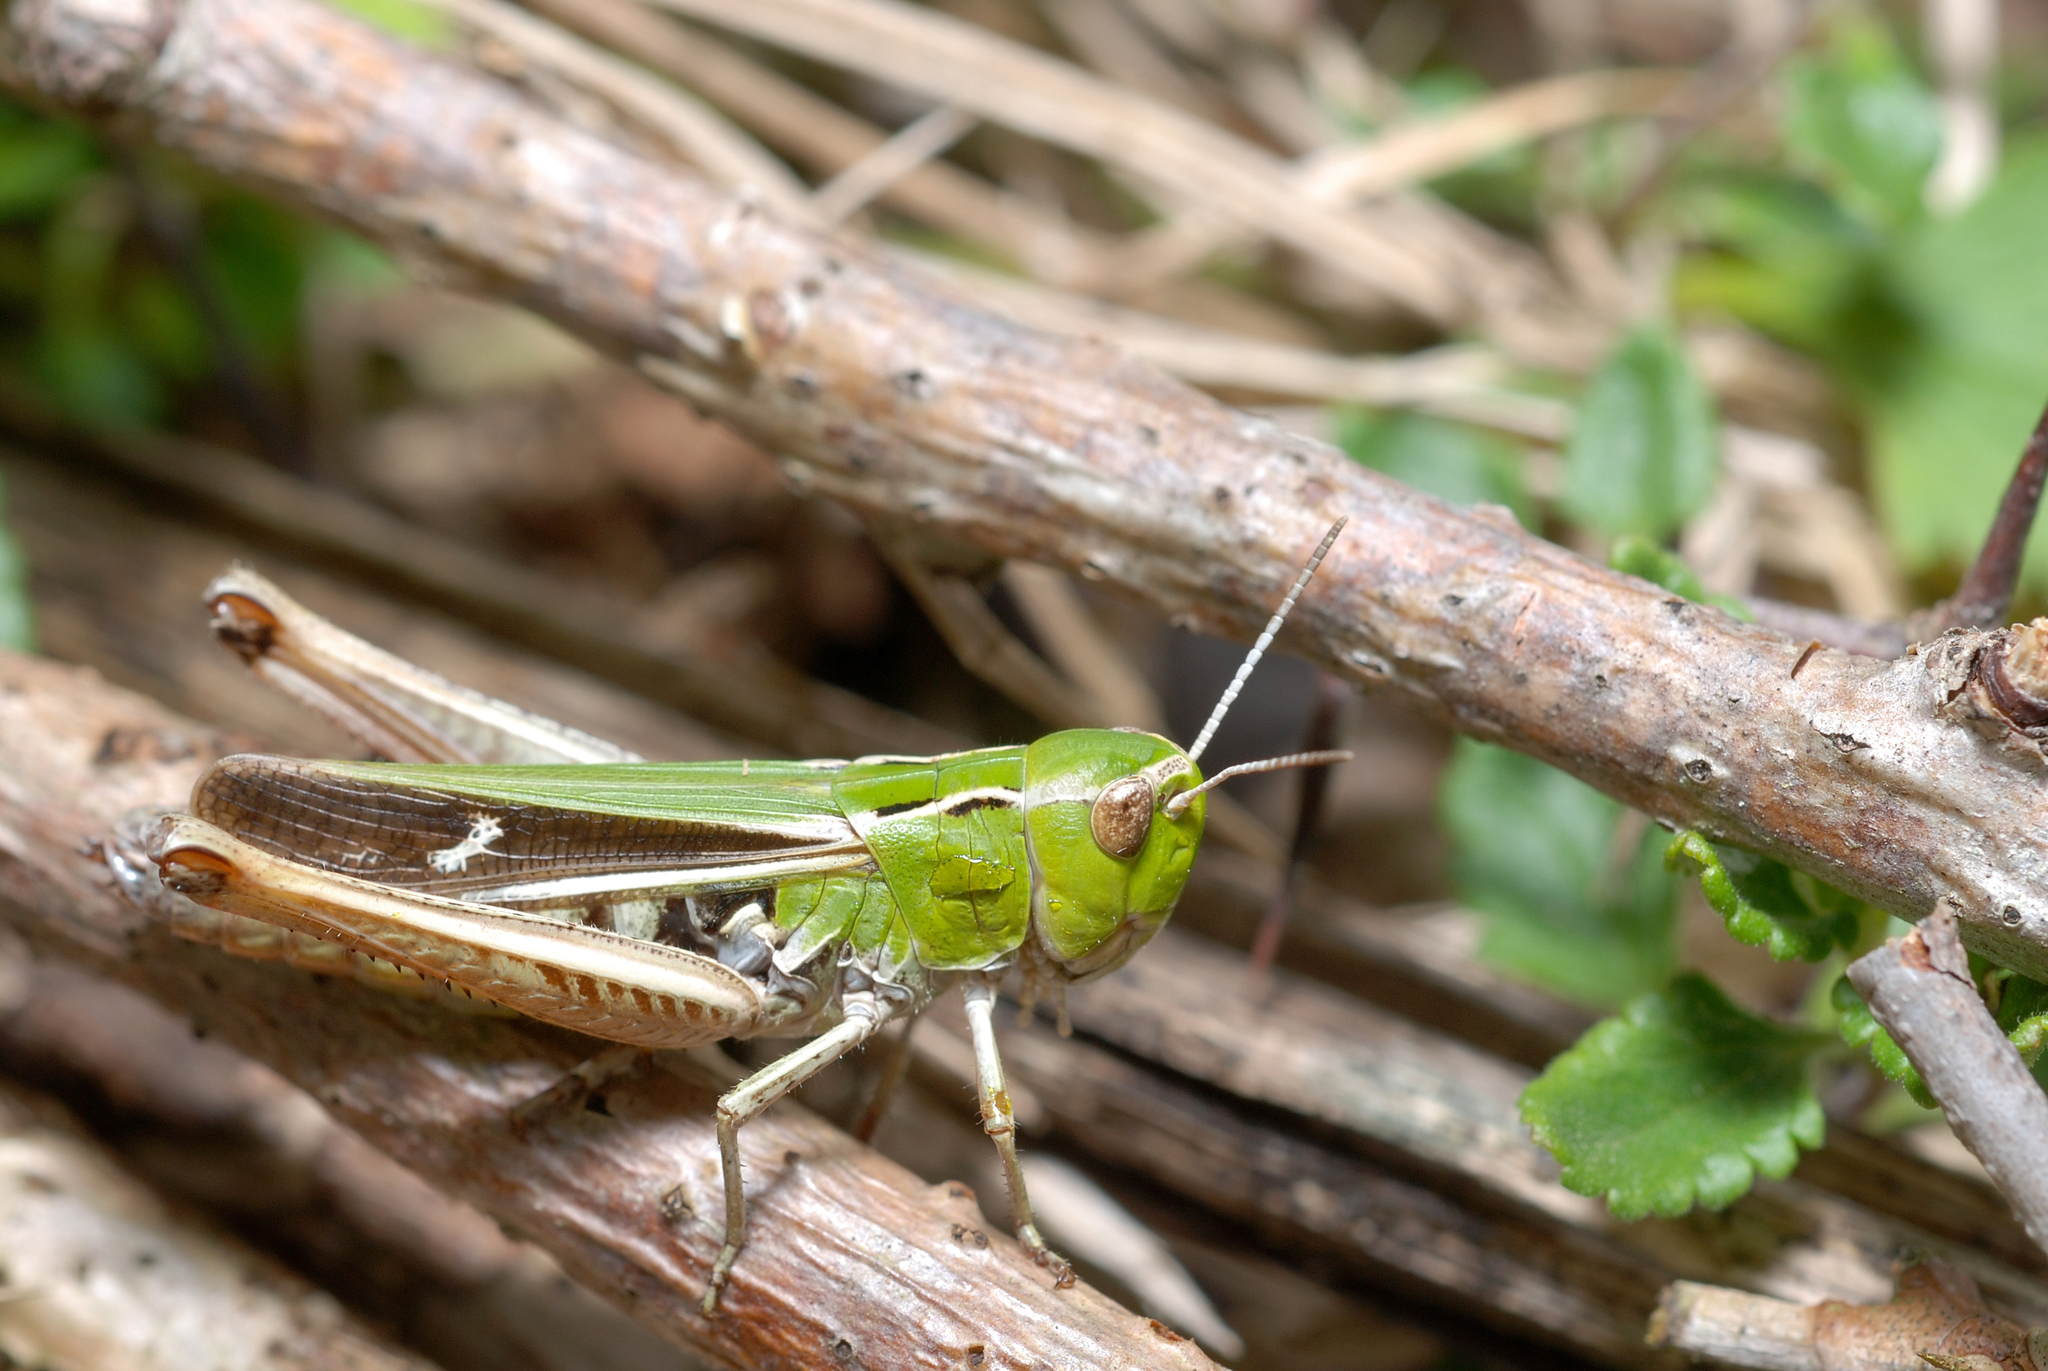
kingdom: Animalia
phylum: Arthropoda
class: Insecta
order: Orthoptera
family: Acrididae
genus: Stenobothrus
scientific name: Stenobothrus lineatus
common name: Stripe-winged grasshopper
